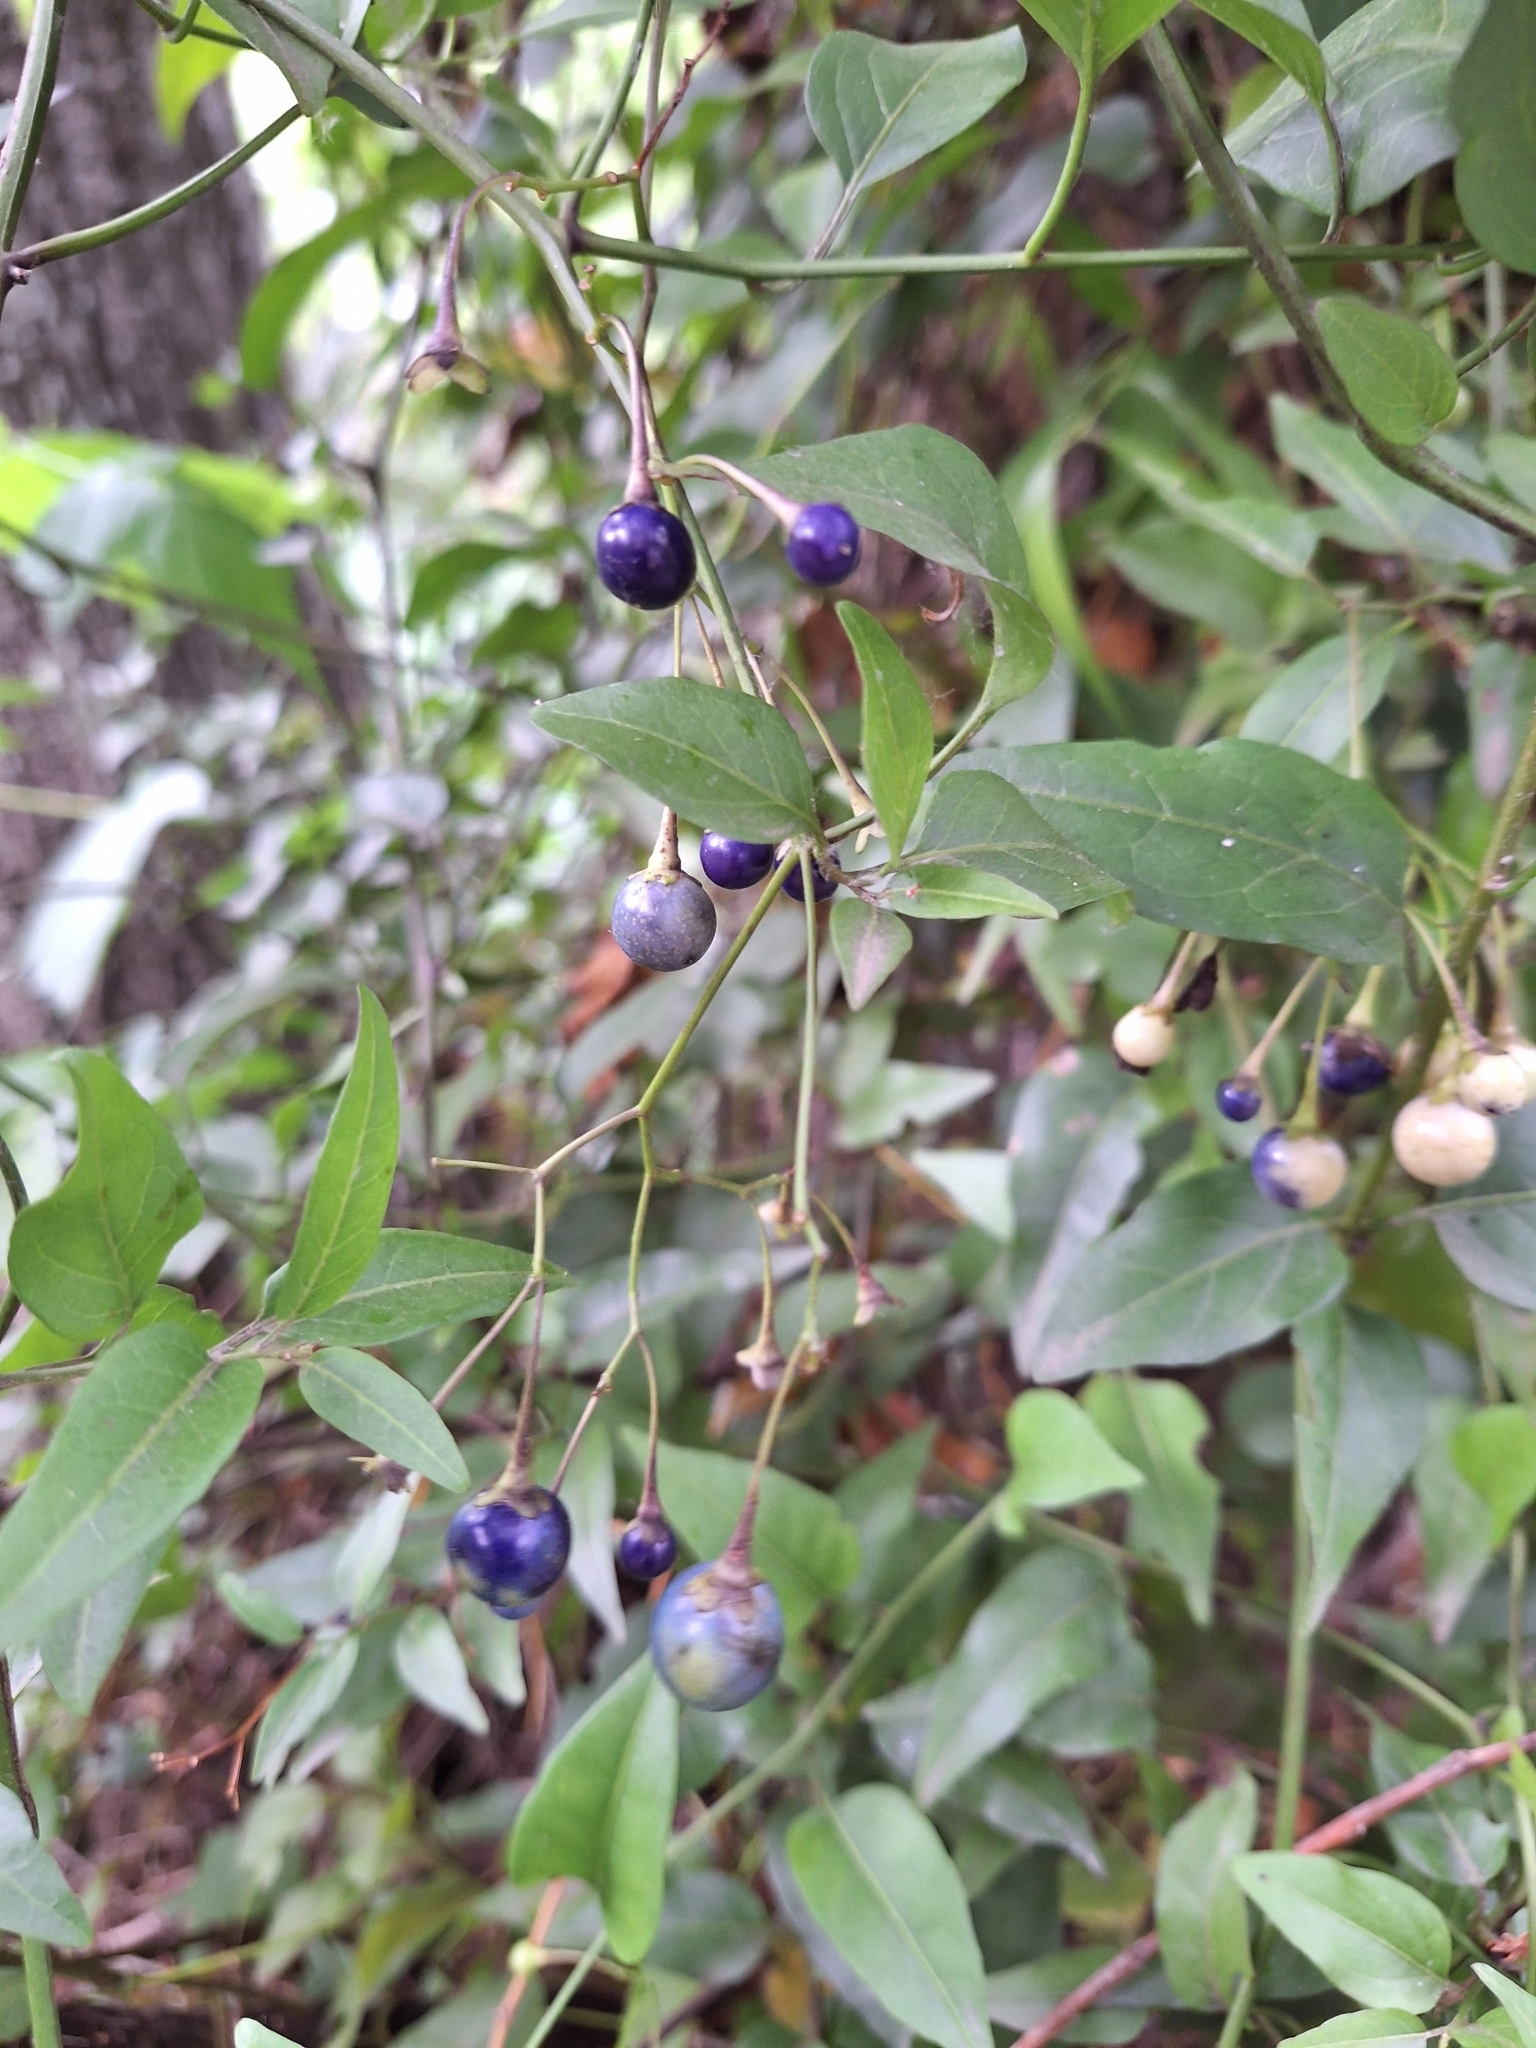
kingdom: Plantae
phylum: Tracheophyta
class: Magnoliopsida
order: Solanales
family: Solanaceae
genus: Solanum
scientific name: Solanum laxum
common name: Nightshade
